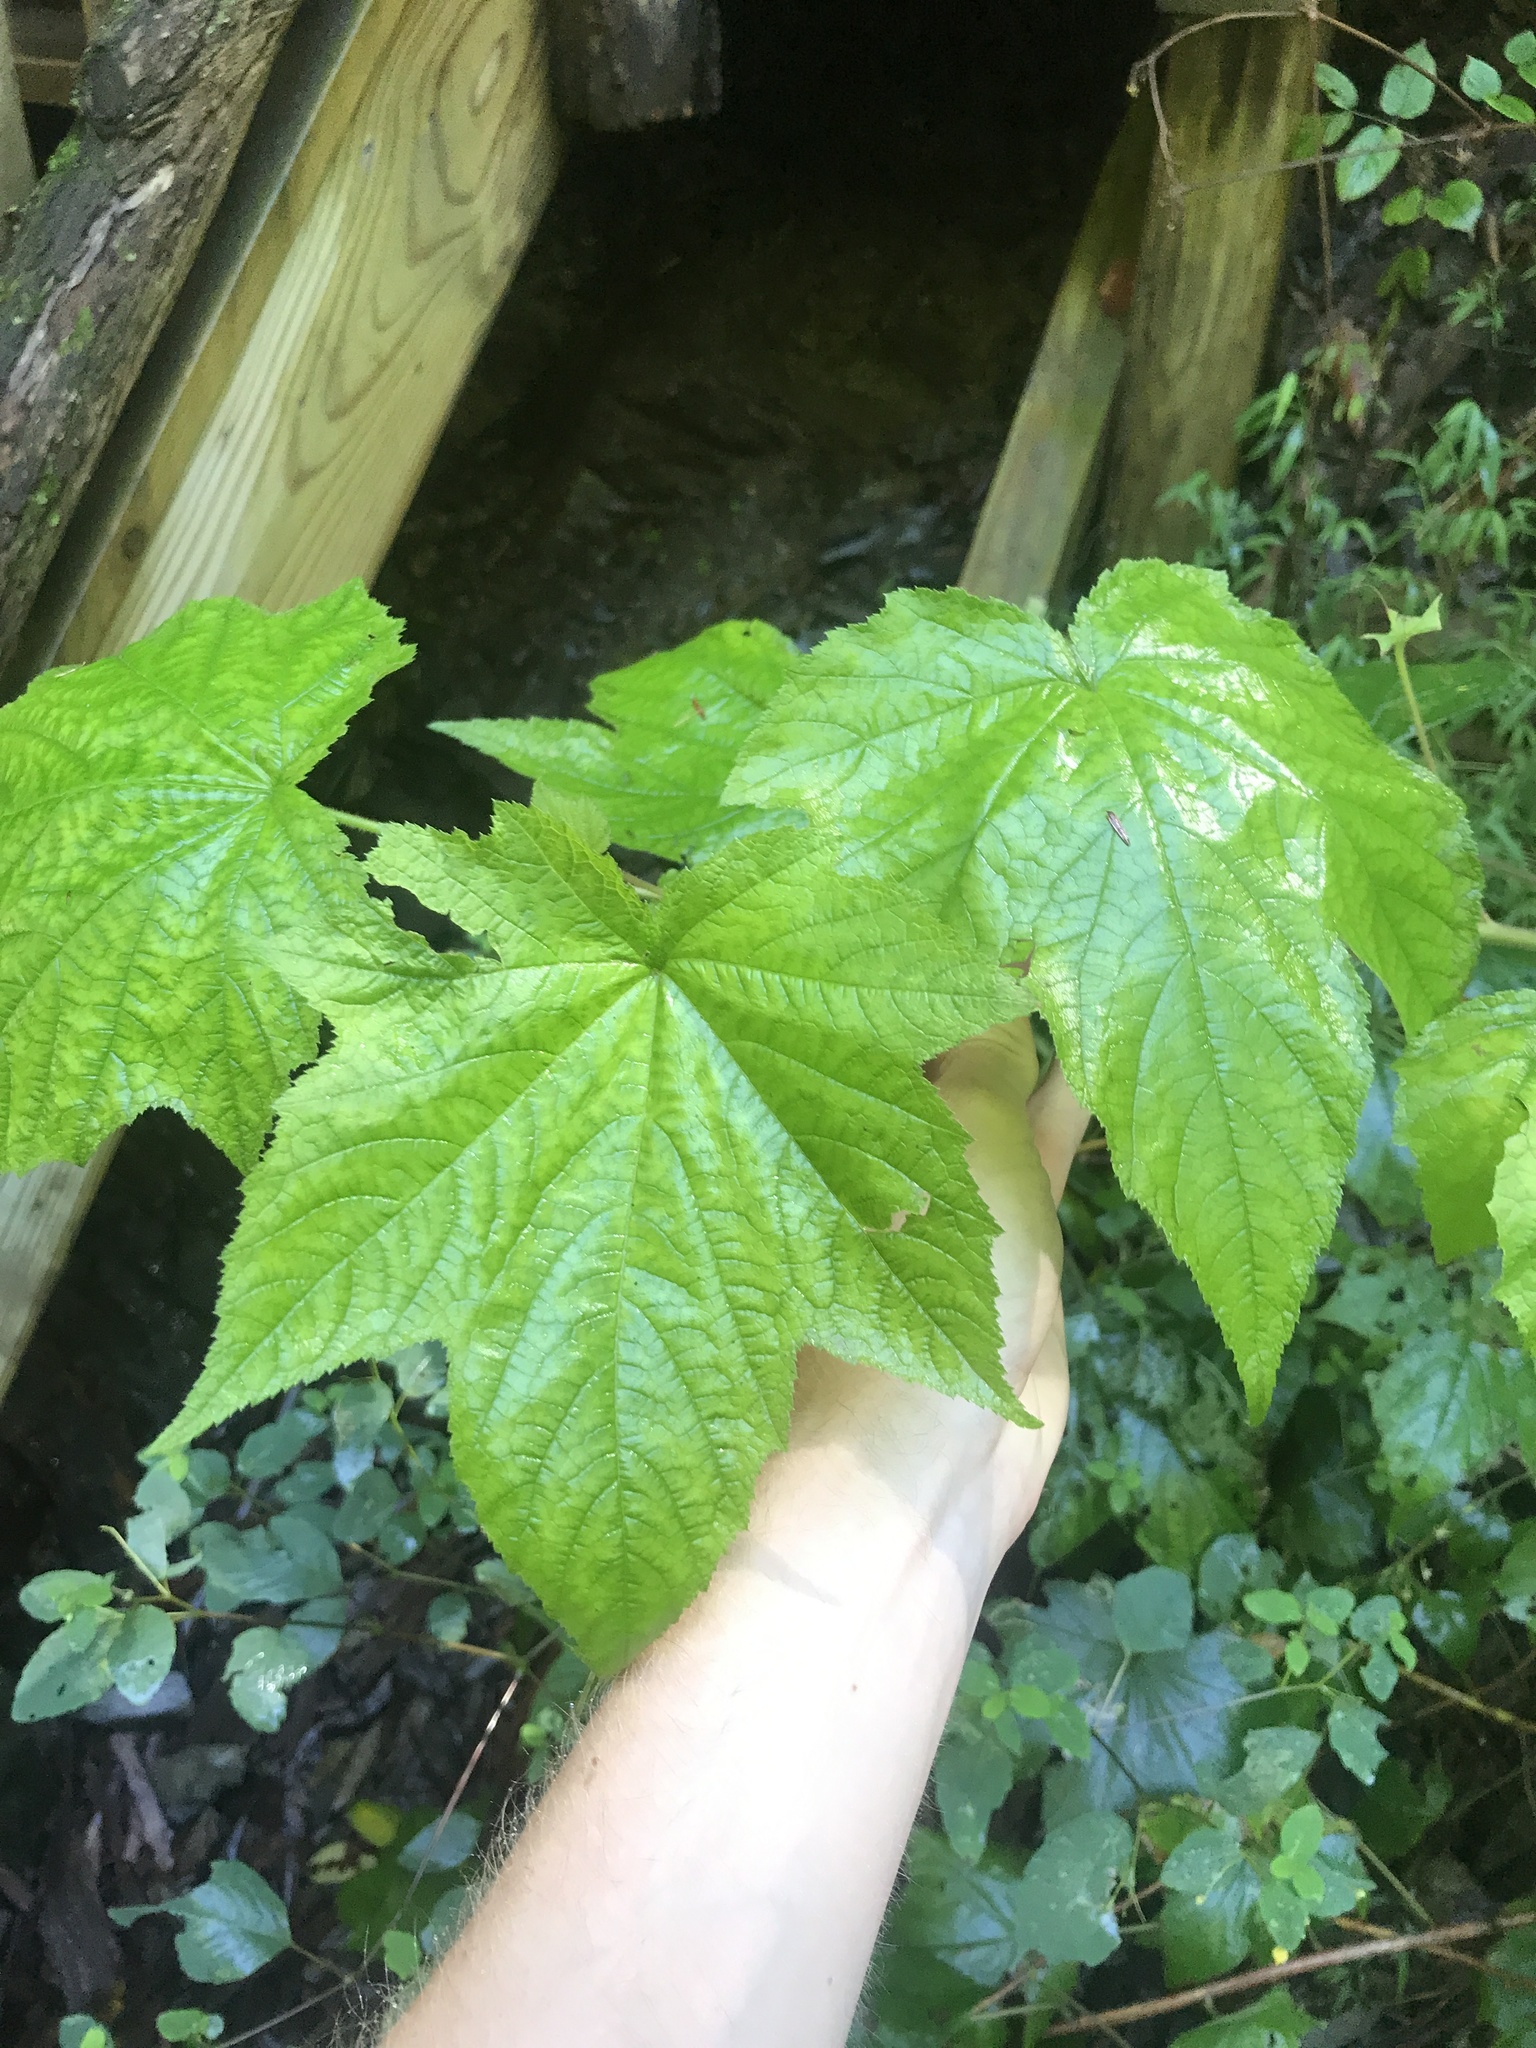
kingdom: Plantae
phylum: Tracheophyta
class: Magnoliopsida
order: Rosales
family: Rosaceae
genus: Rubus
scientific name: Rubus odoratus
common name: Purple-flowered raspberry
